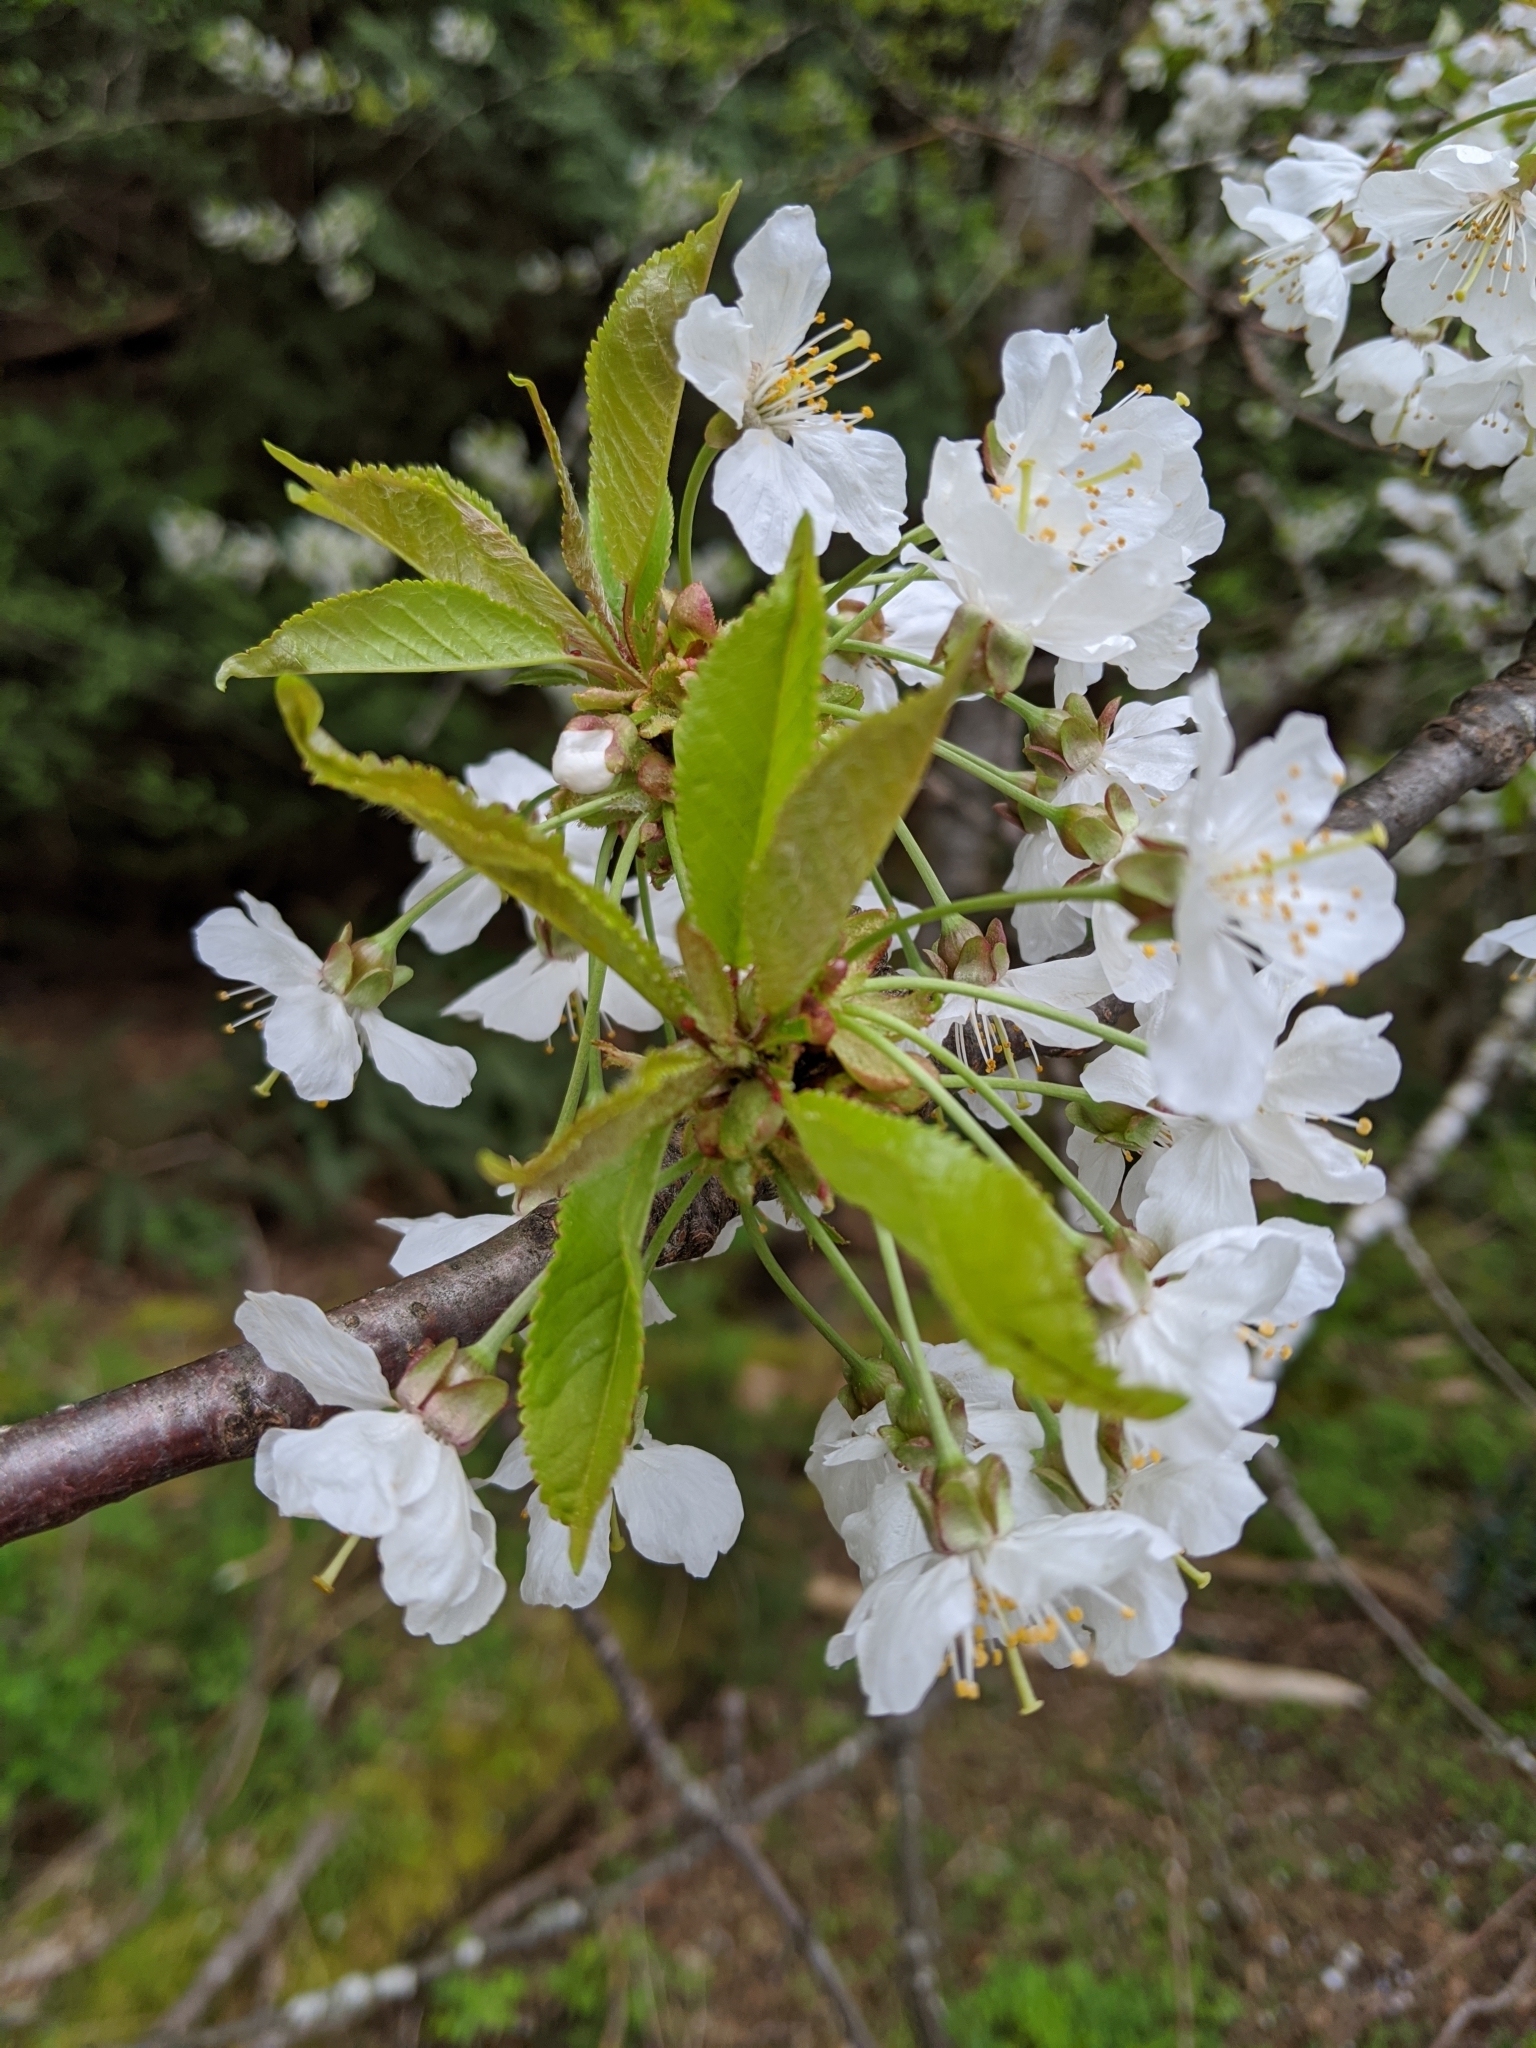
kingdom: Plantae
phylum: Tracheophyta
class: Magnoliopsida
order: Rosales
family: Rosaceae
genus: Prunus
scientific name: Prunus avium
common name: Sweet cherry
